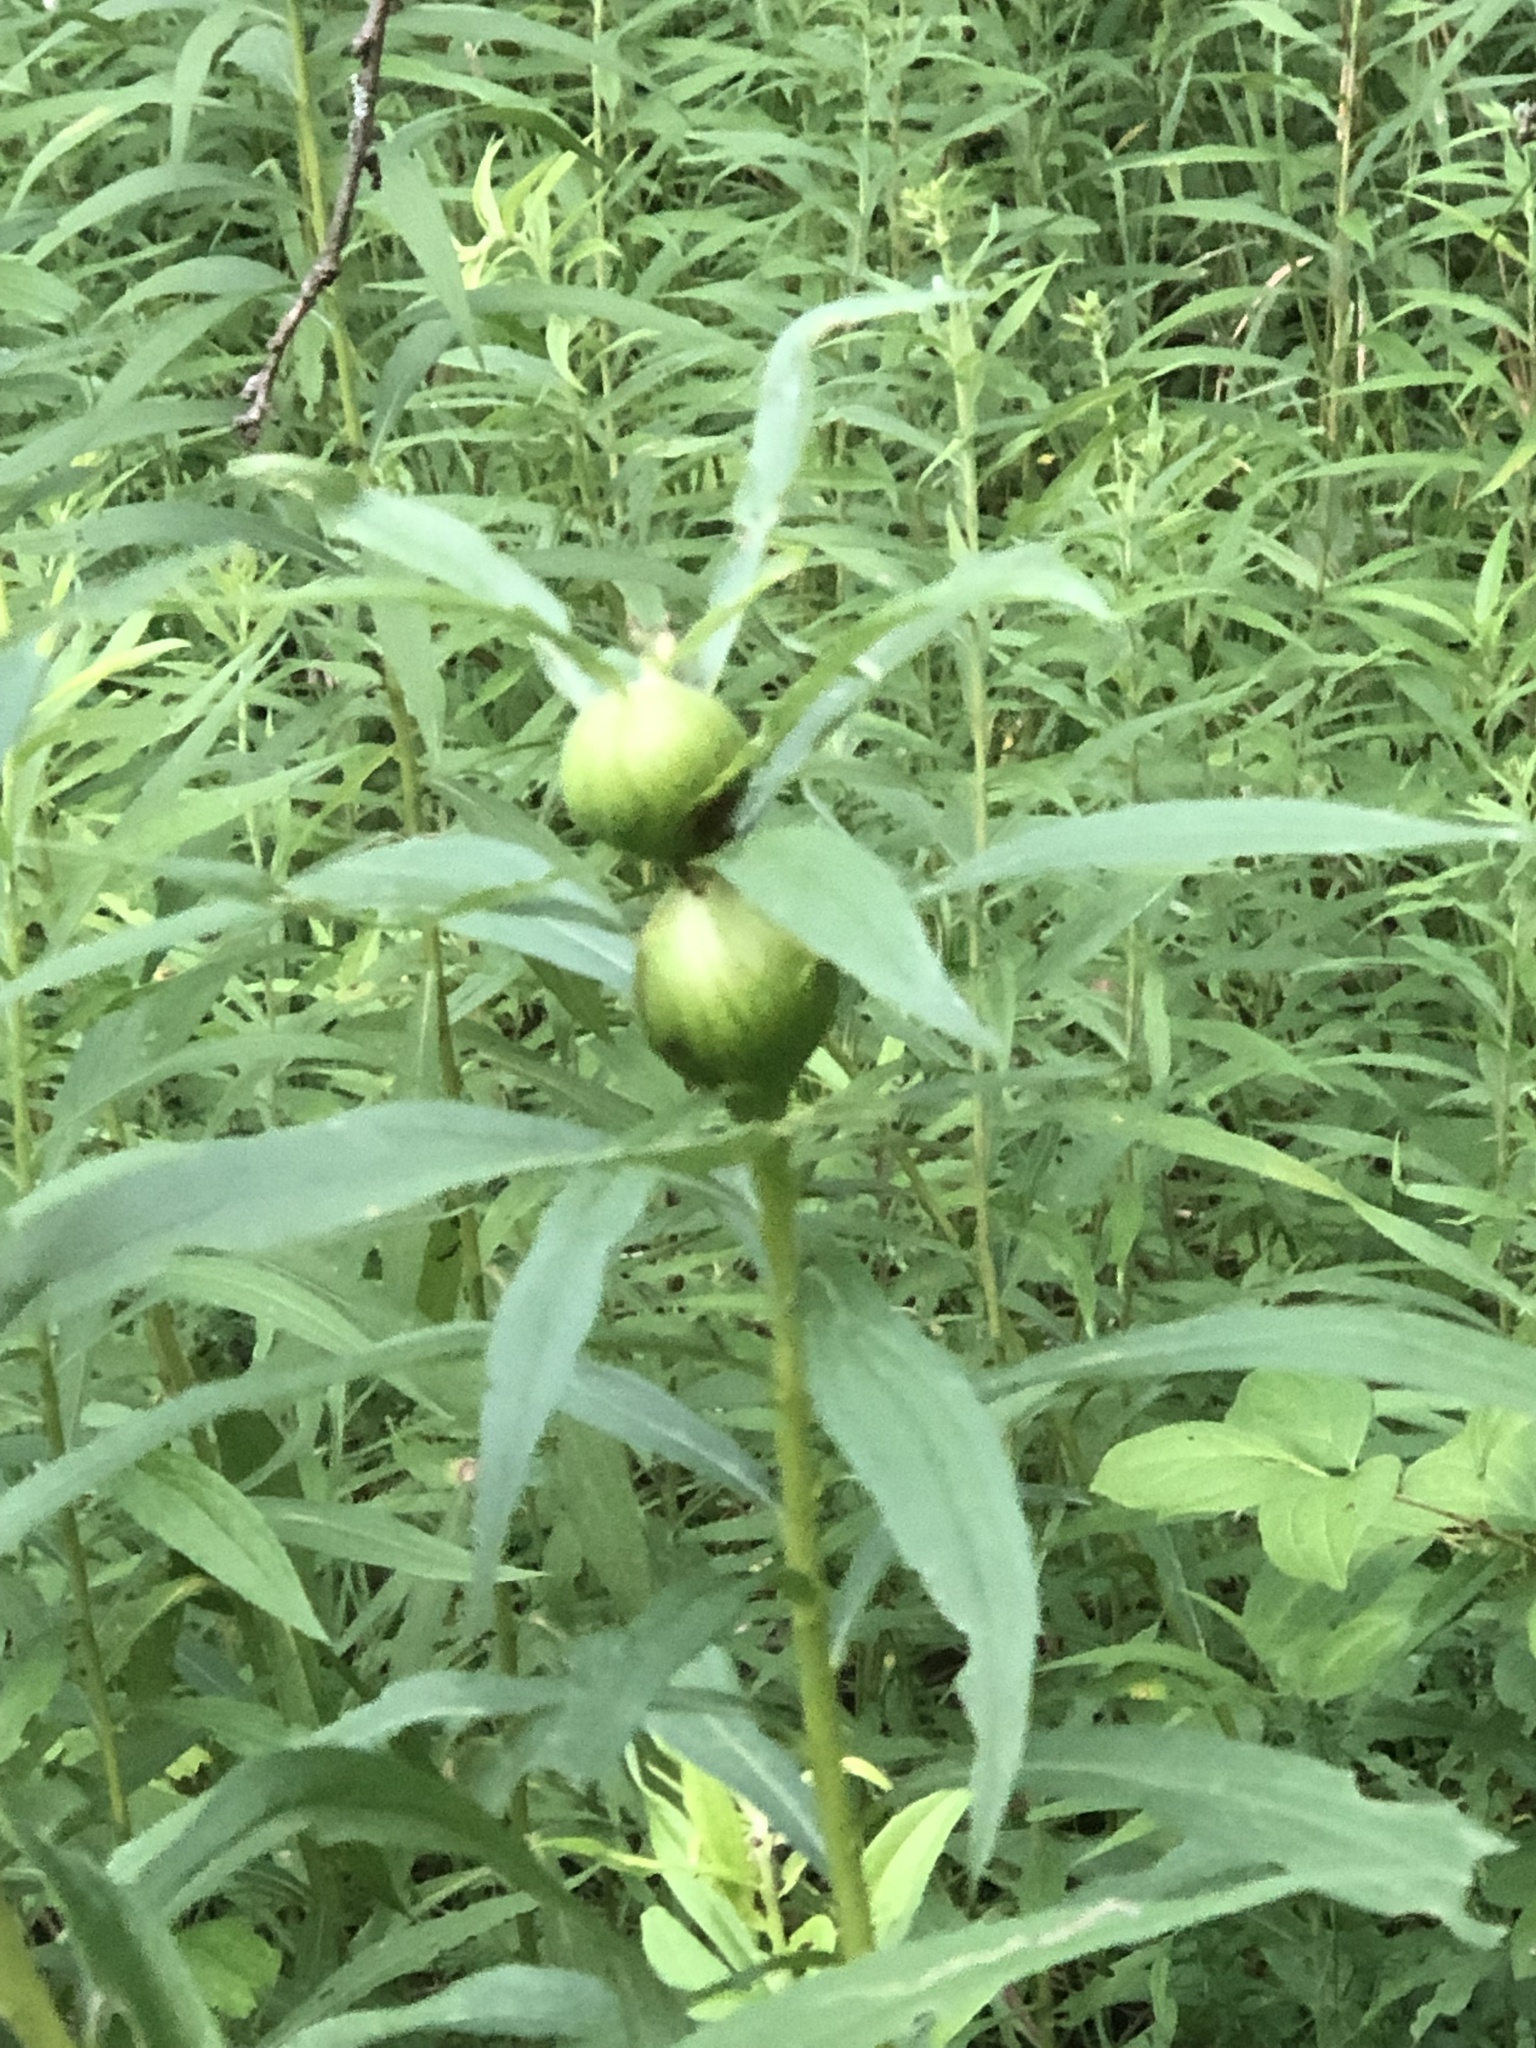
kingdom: Animalia
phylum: Arthropoda
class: Insecta
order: Diptera
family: Tephritidae
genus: Eurosta
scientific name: Eurosta solidaginis
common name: Goldenrod gall fly
